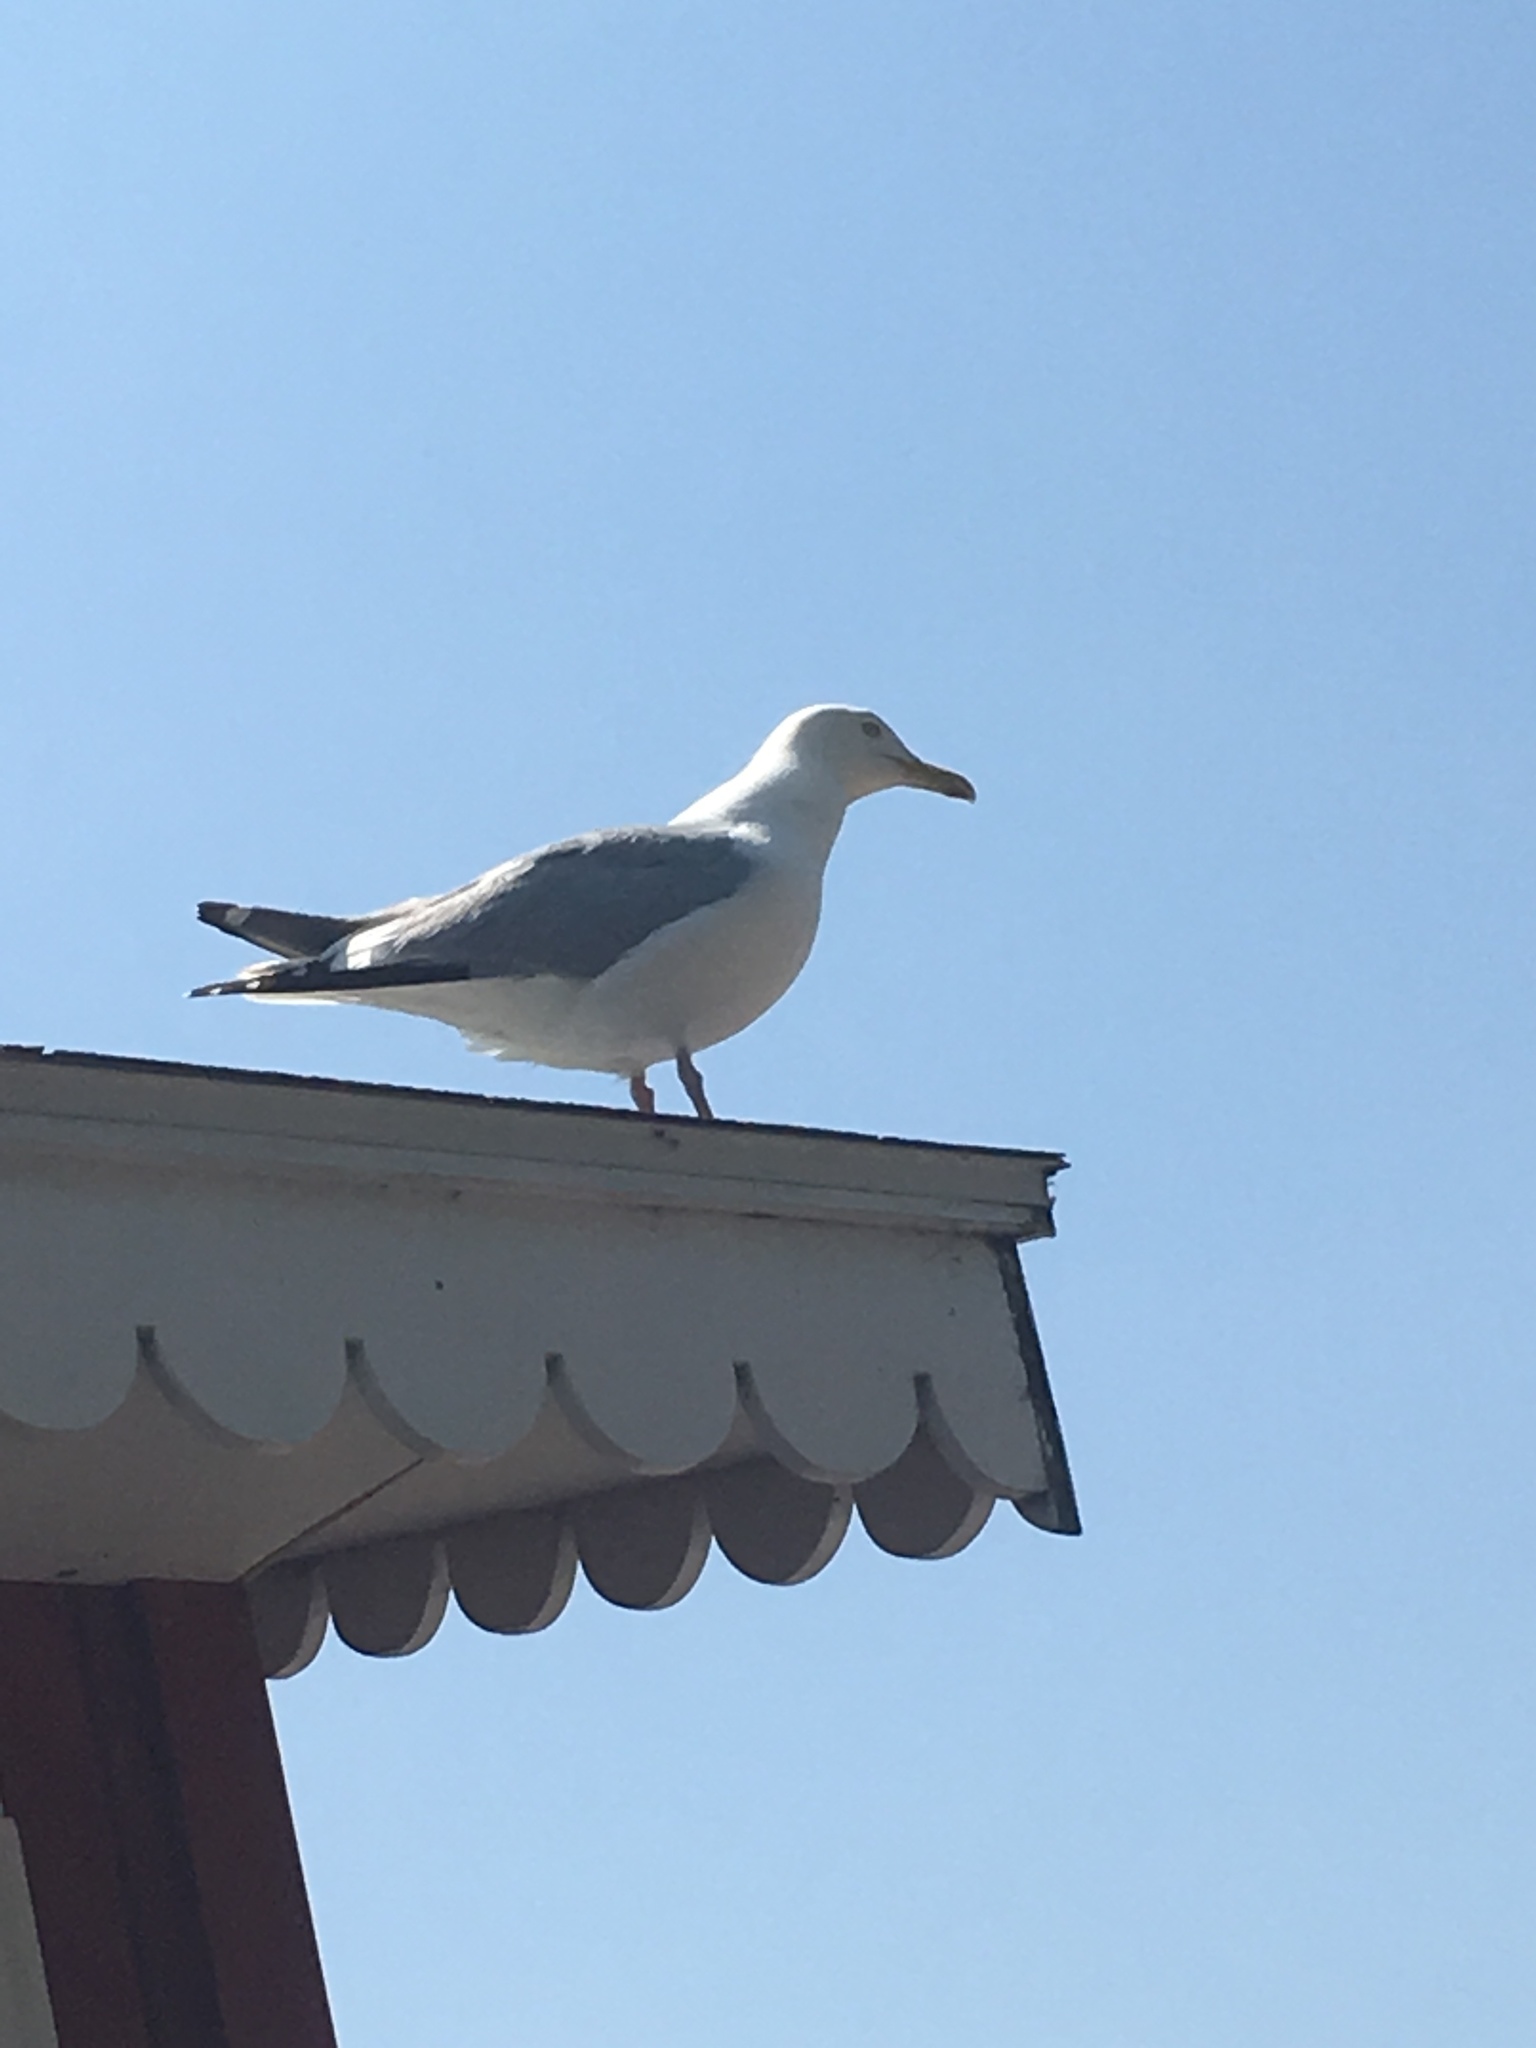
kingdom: Animalia
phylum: Chordata
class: Aves
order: Charadriiformes
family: Laridae
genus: Larus
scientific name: Larus argentatus
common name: Herring gull
